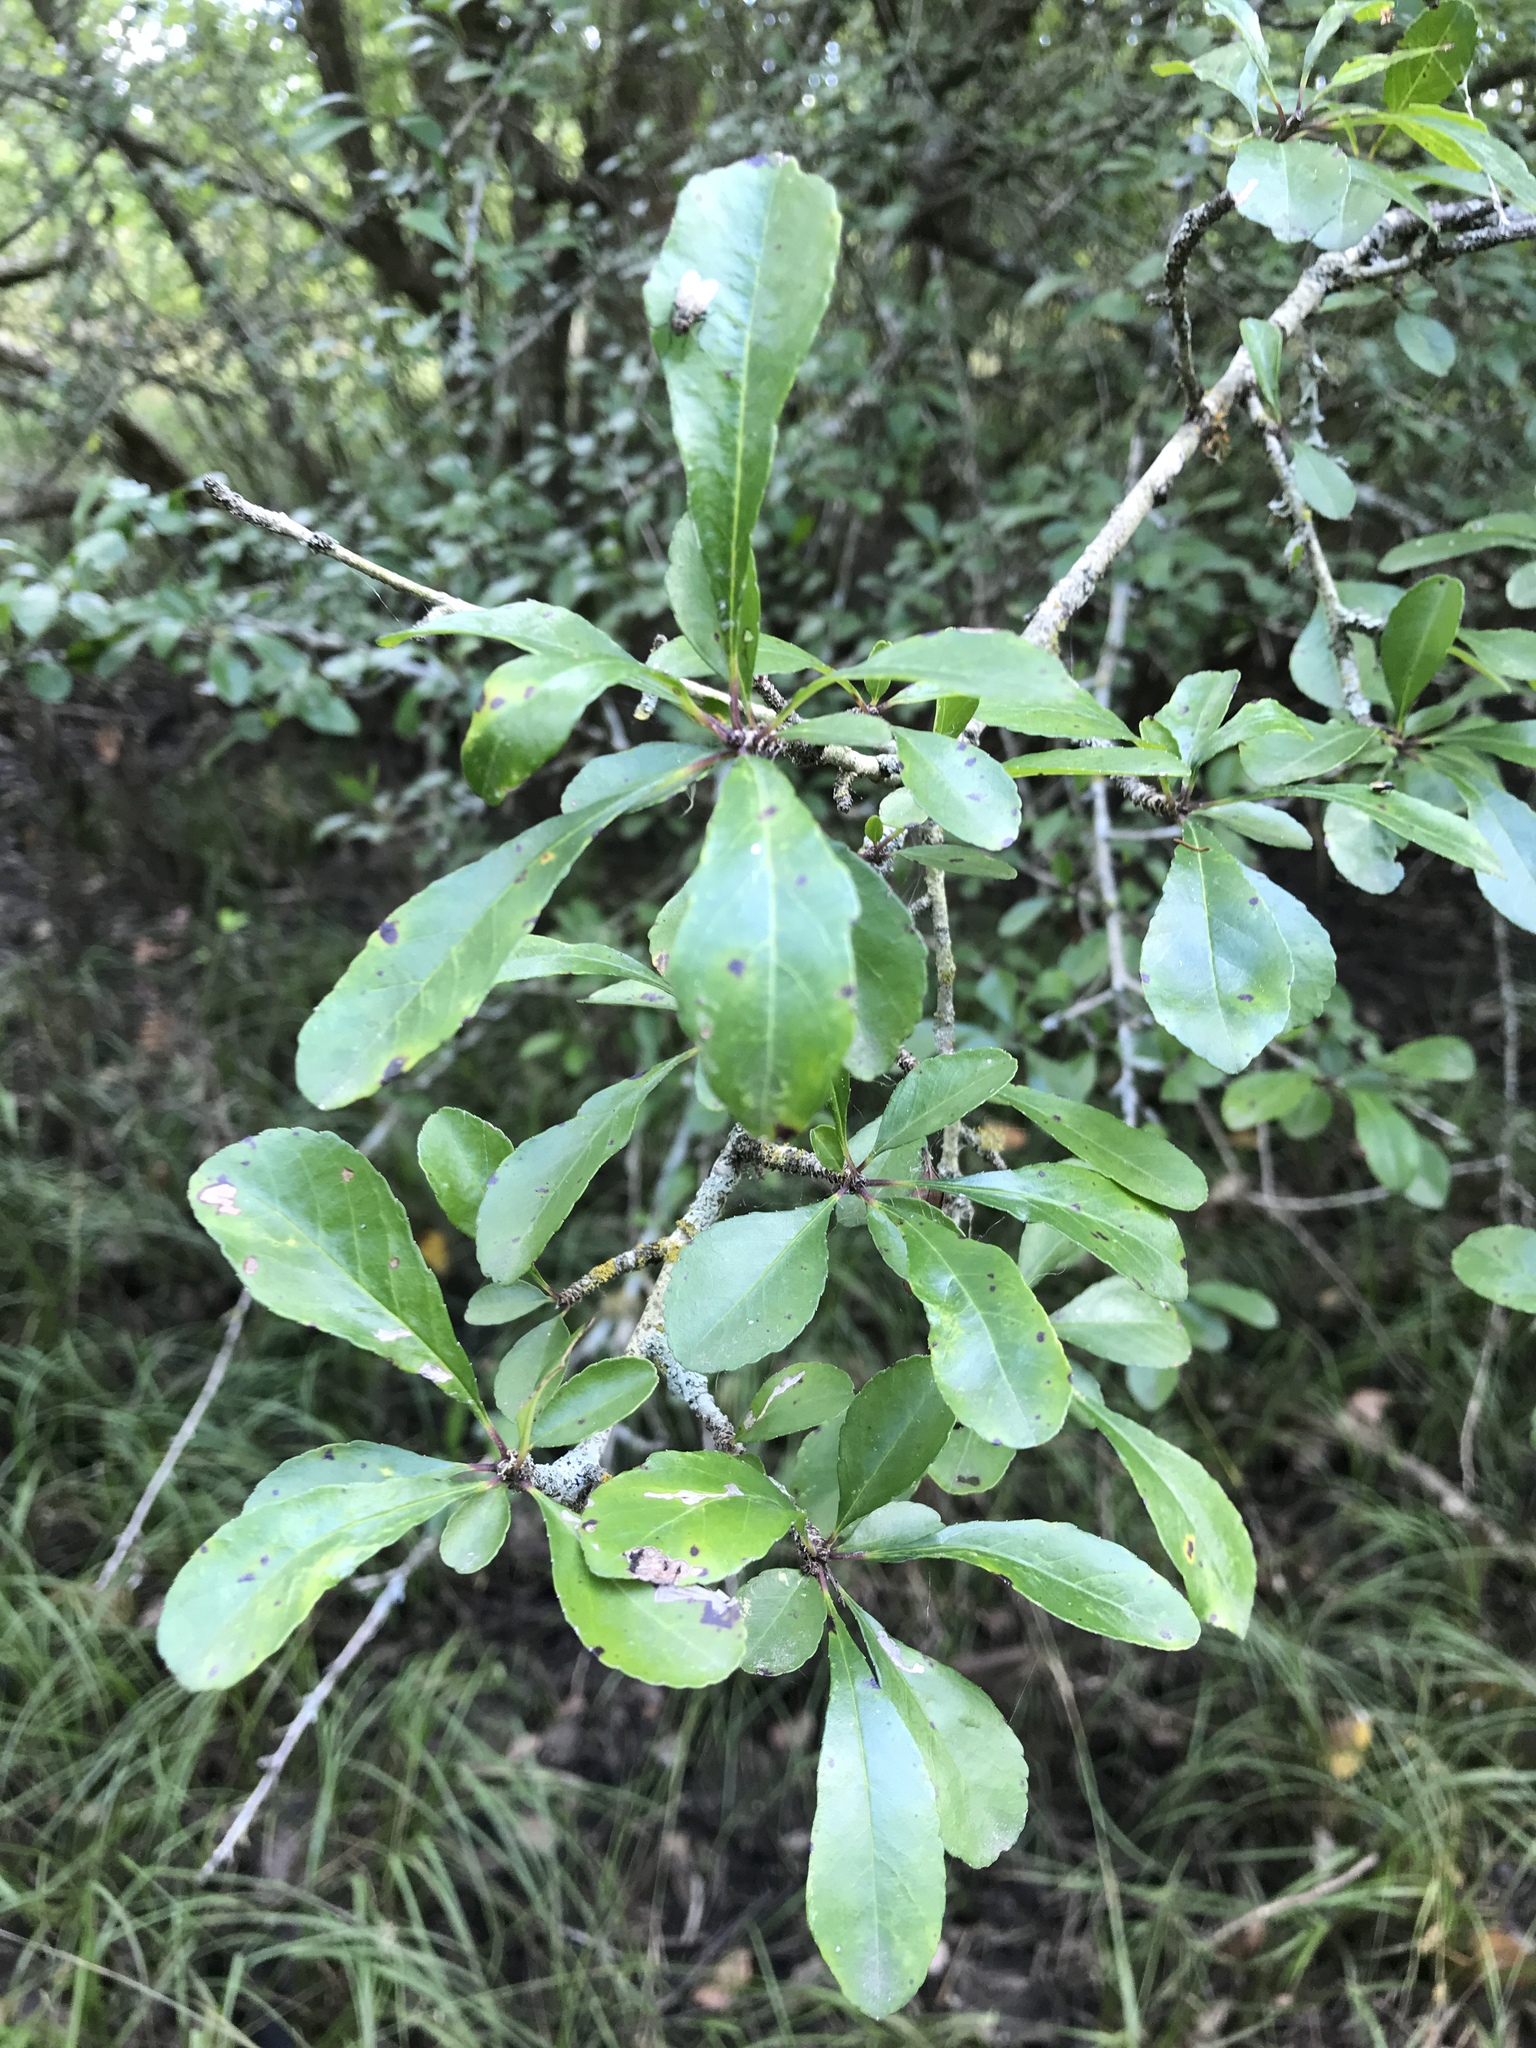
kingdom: Plantae
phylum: Tracheophyta
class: Magnoliopsida
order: Aquifoliales
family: Aquifoliaceae
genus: Ilex
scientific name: Ilex decidua
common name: Possum-haw
